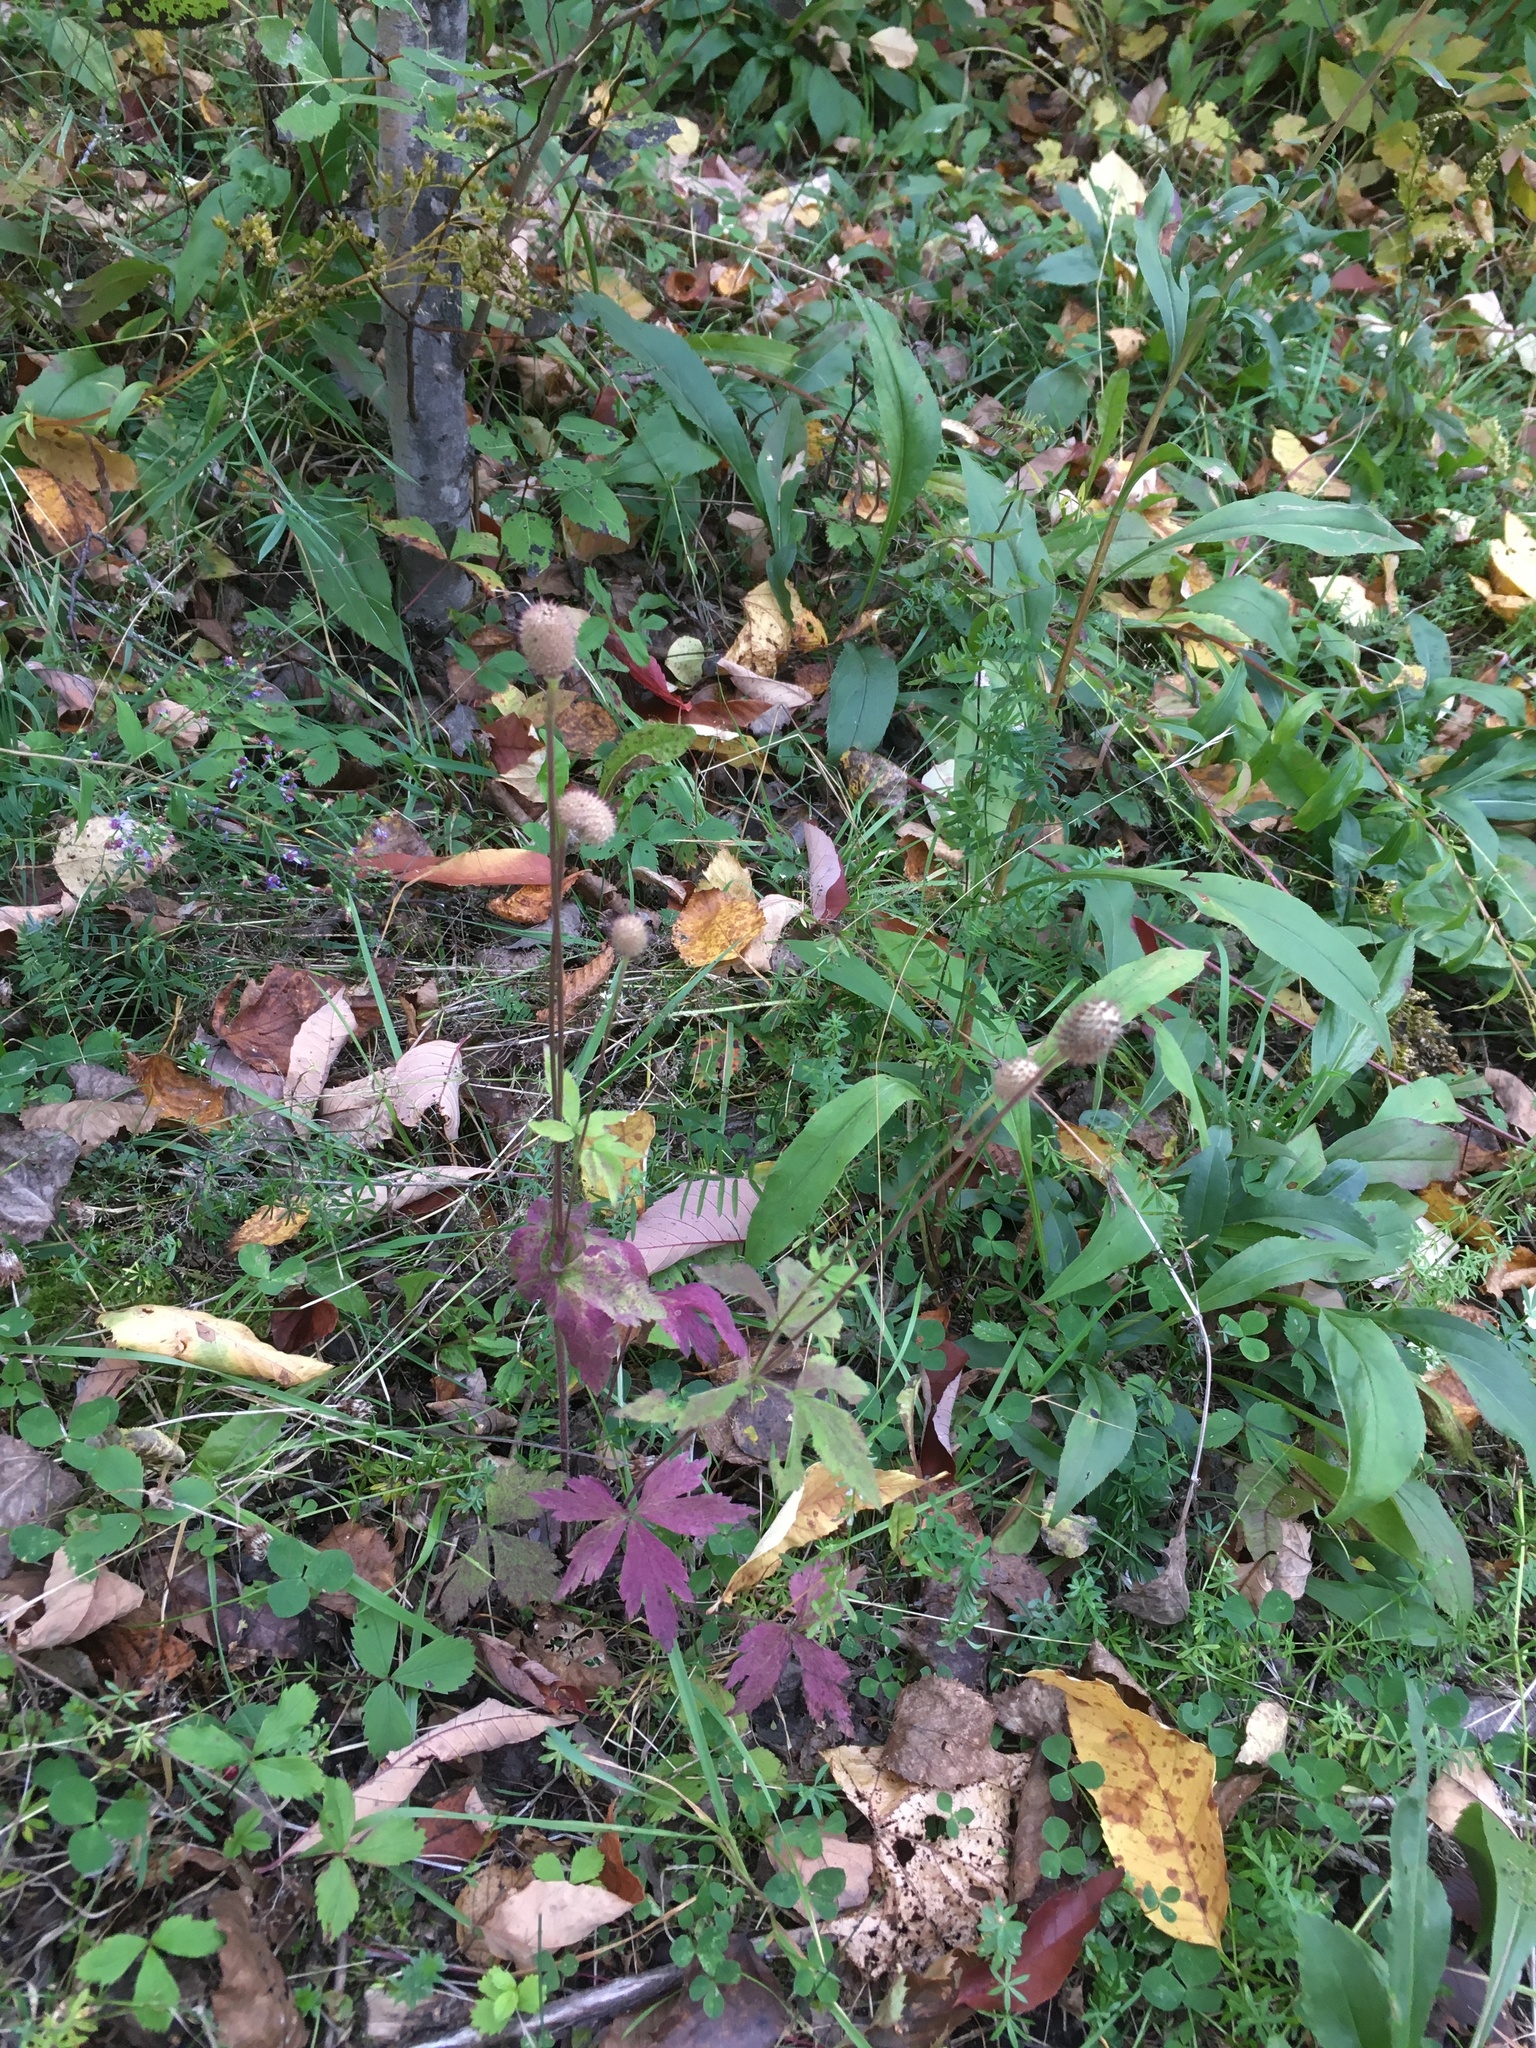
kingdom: Plantae
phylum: Tracheophyta
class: Magnoliopsida
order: Ranunculales
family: Ranunculaceae
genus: Anemone
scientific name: Anemone virginiana
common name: Tall anemone
